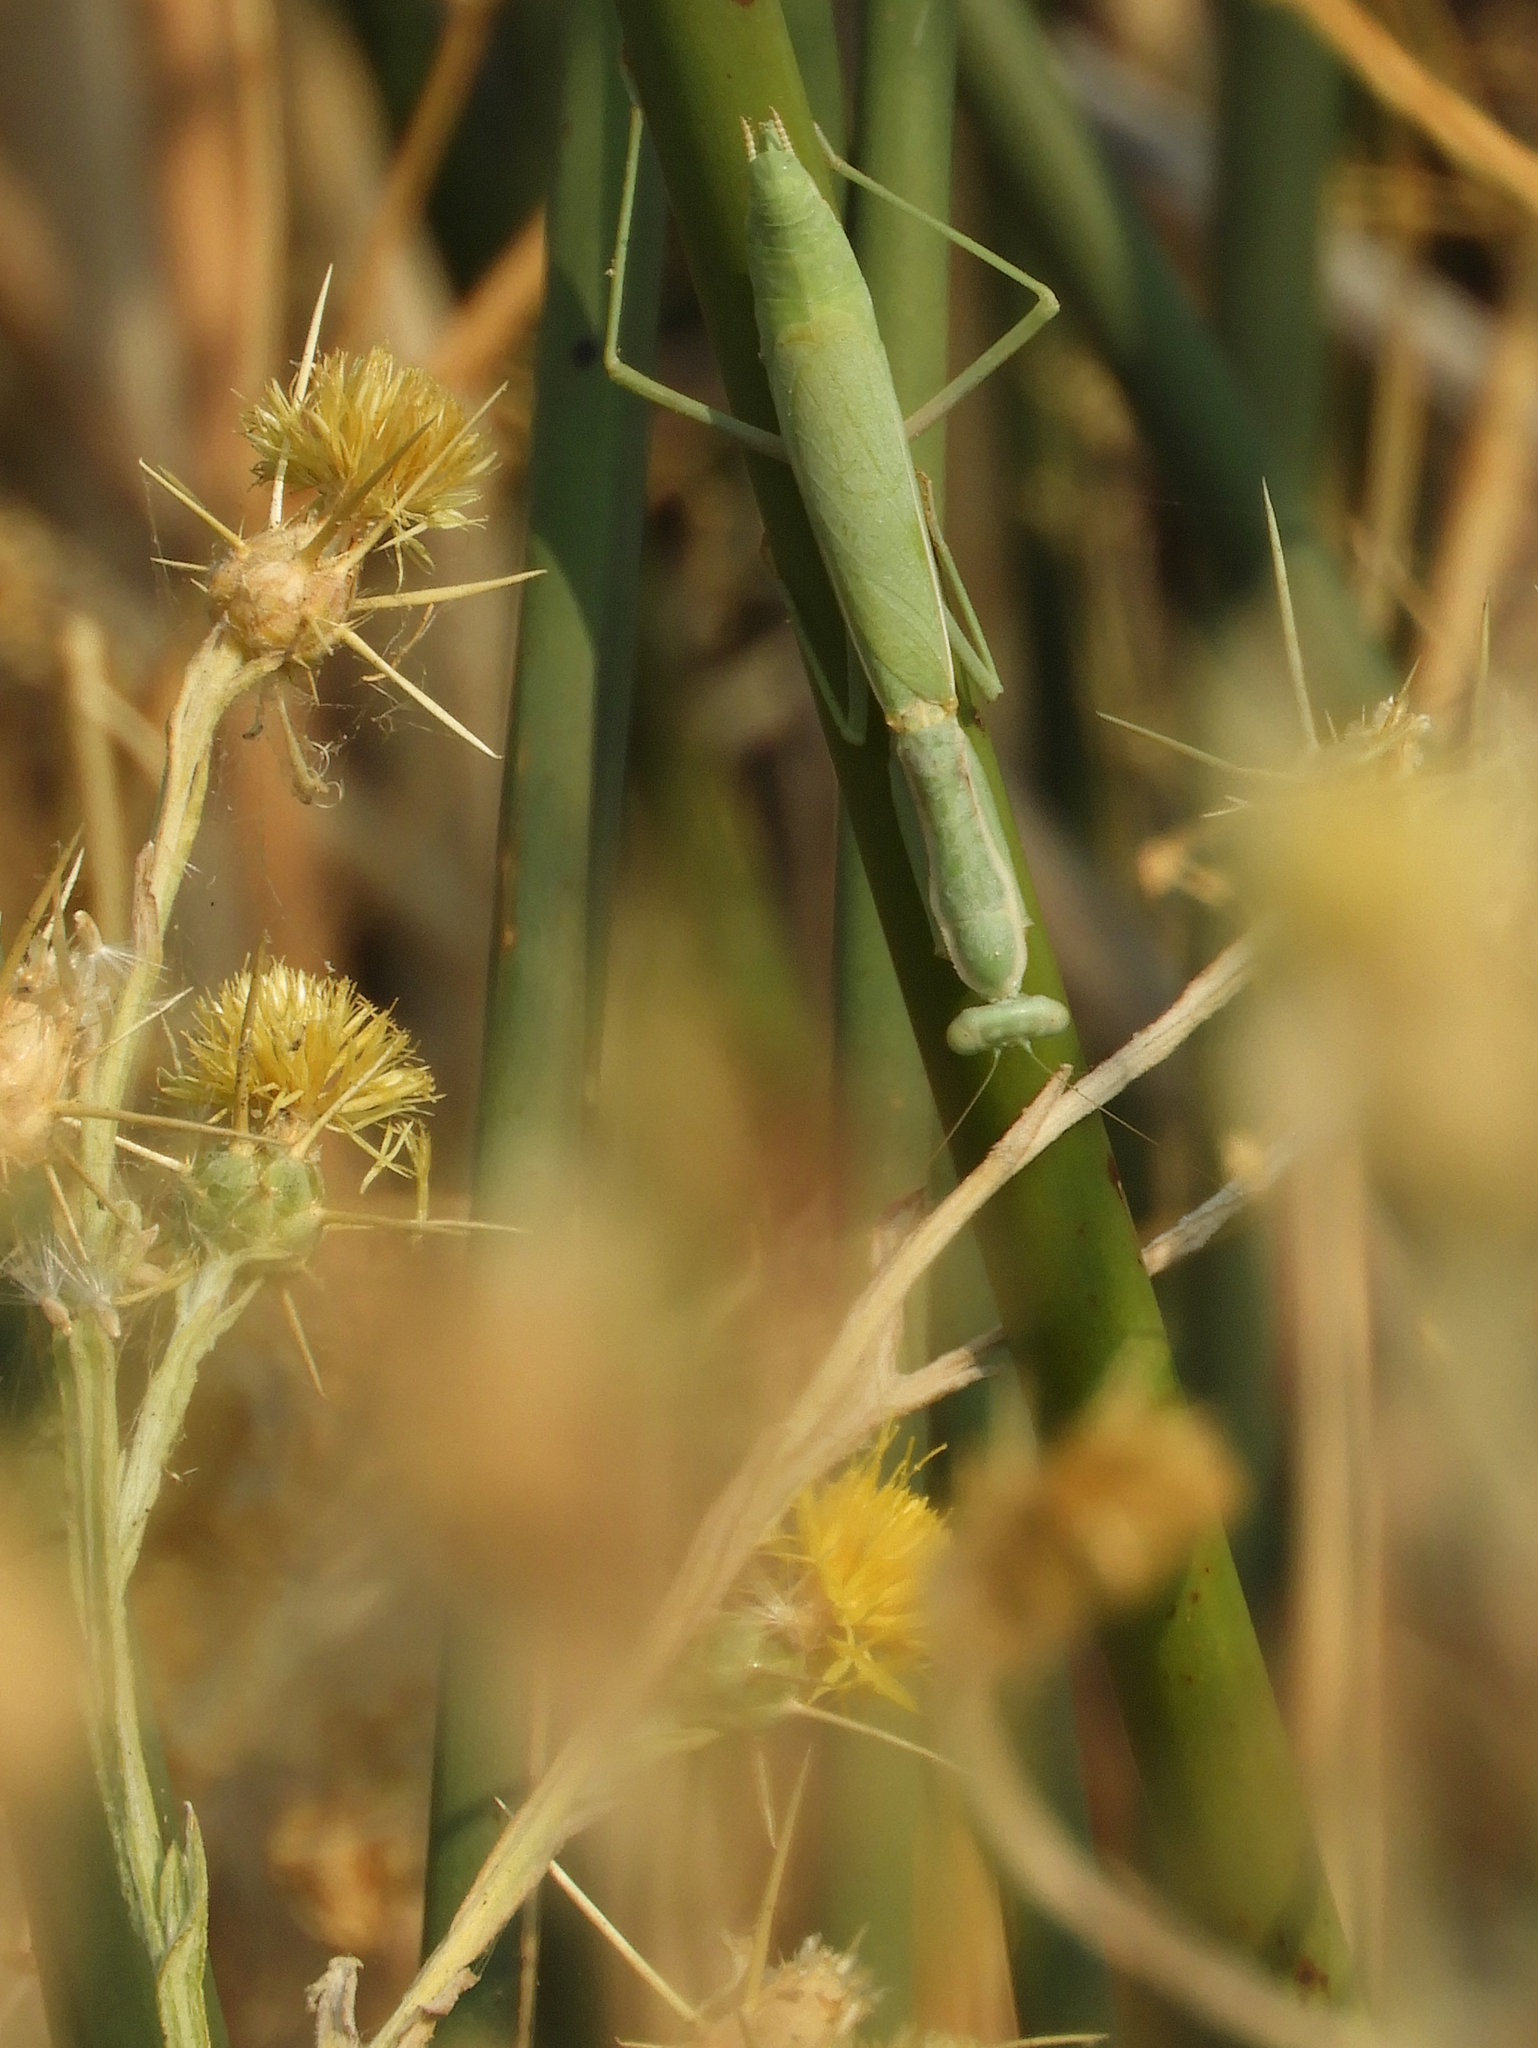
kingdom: Animalia
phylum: Arthropoda
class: Insecta
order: Mantodea
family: Eremiaphilidae
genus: Iris
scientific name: Iris oratoria
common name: Mediterranean mantis
